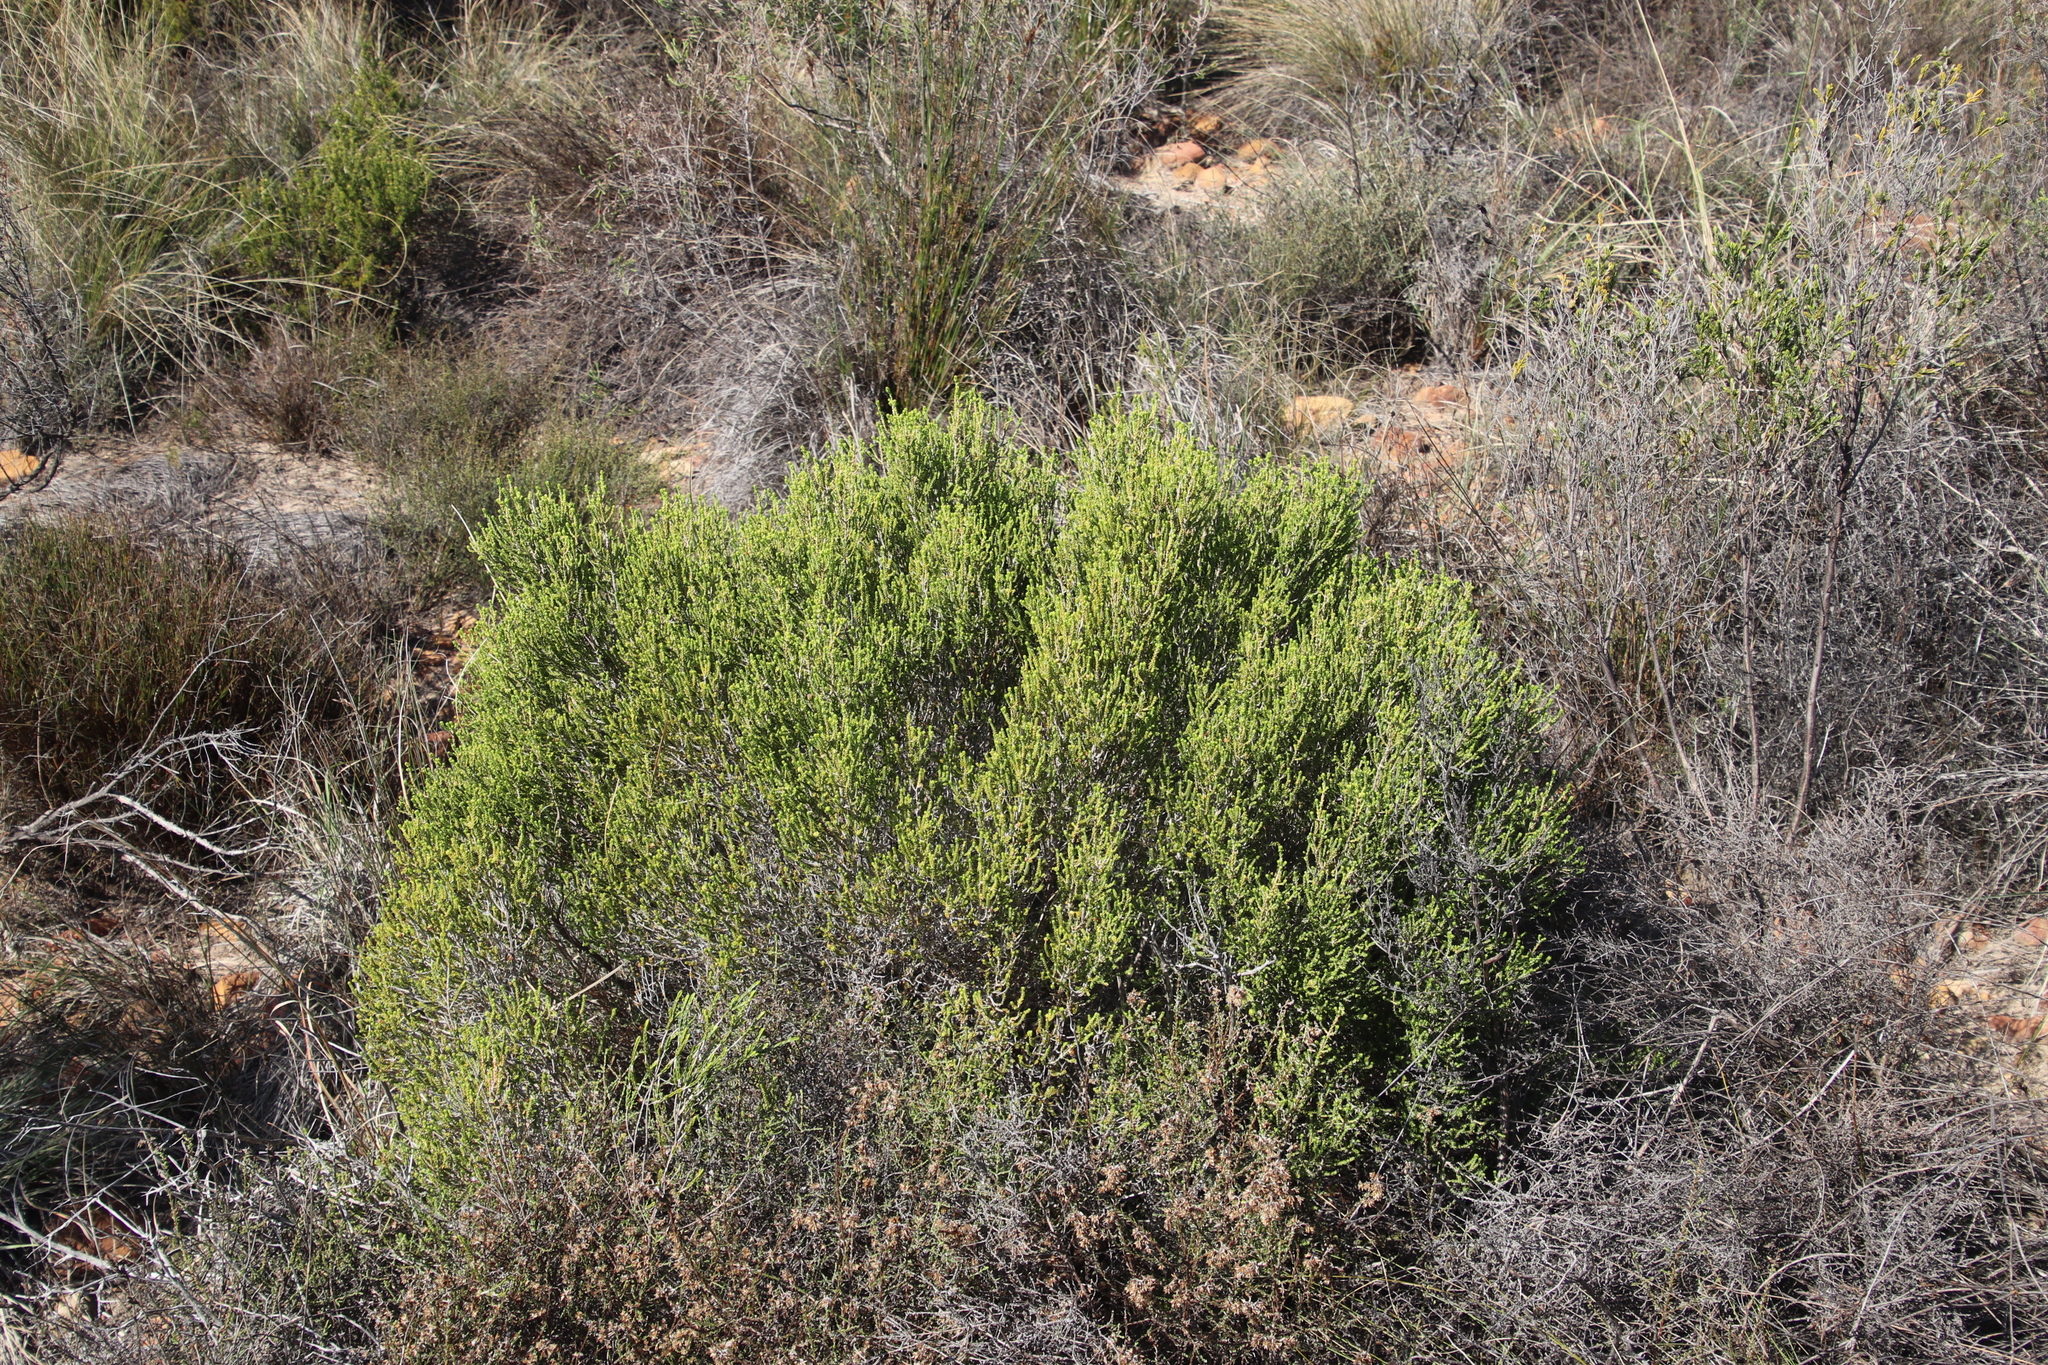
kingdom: Plantae
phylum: Tracheophyta
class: Magnoliopsida
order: Malvales
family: Thymelaeaceae
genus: Passerina
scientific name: Passerina corymbosa
